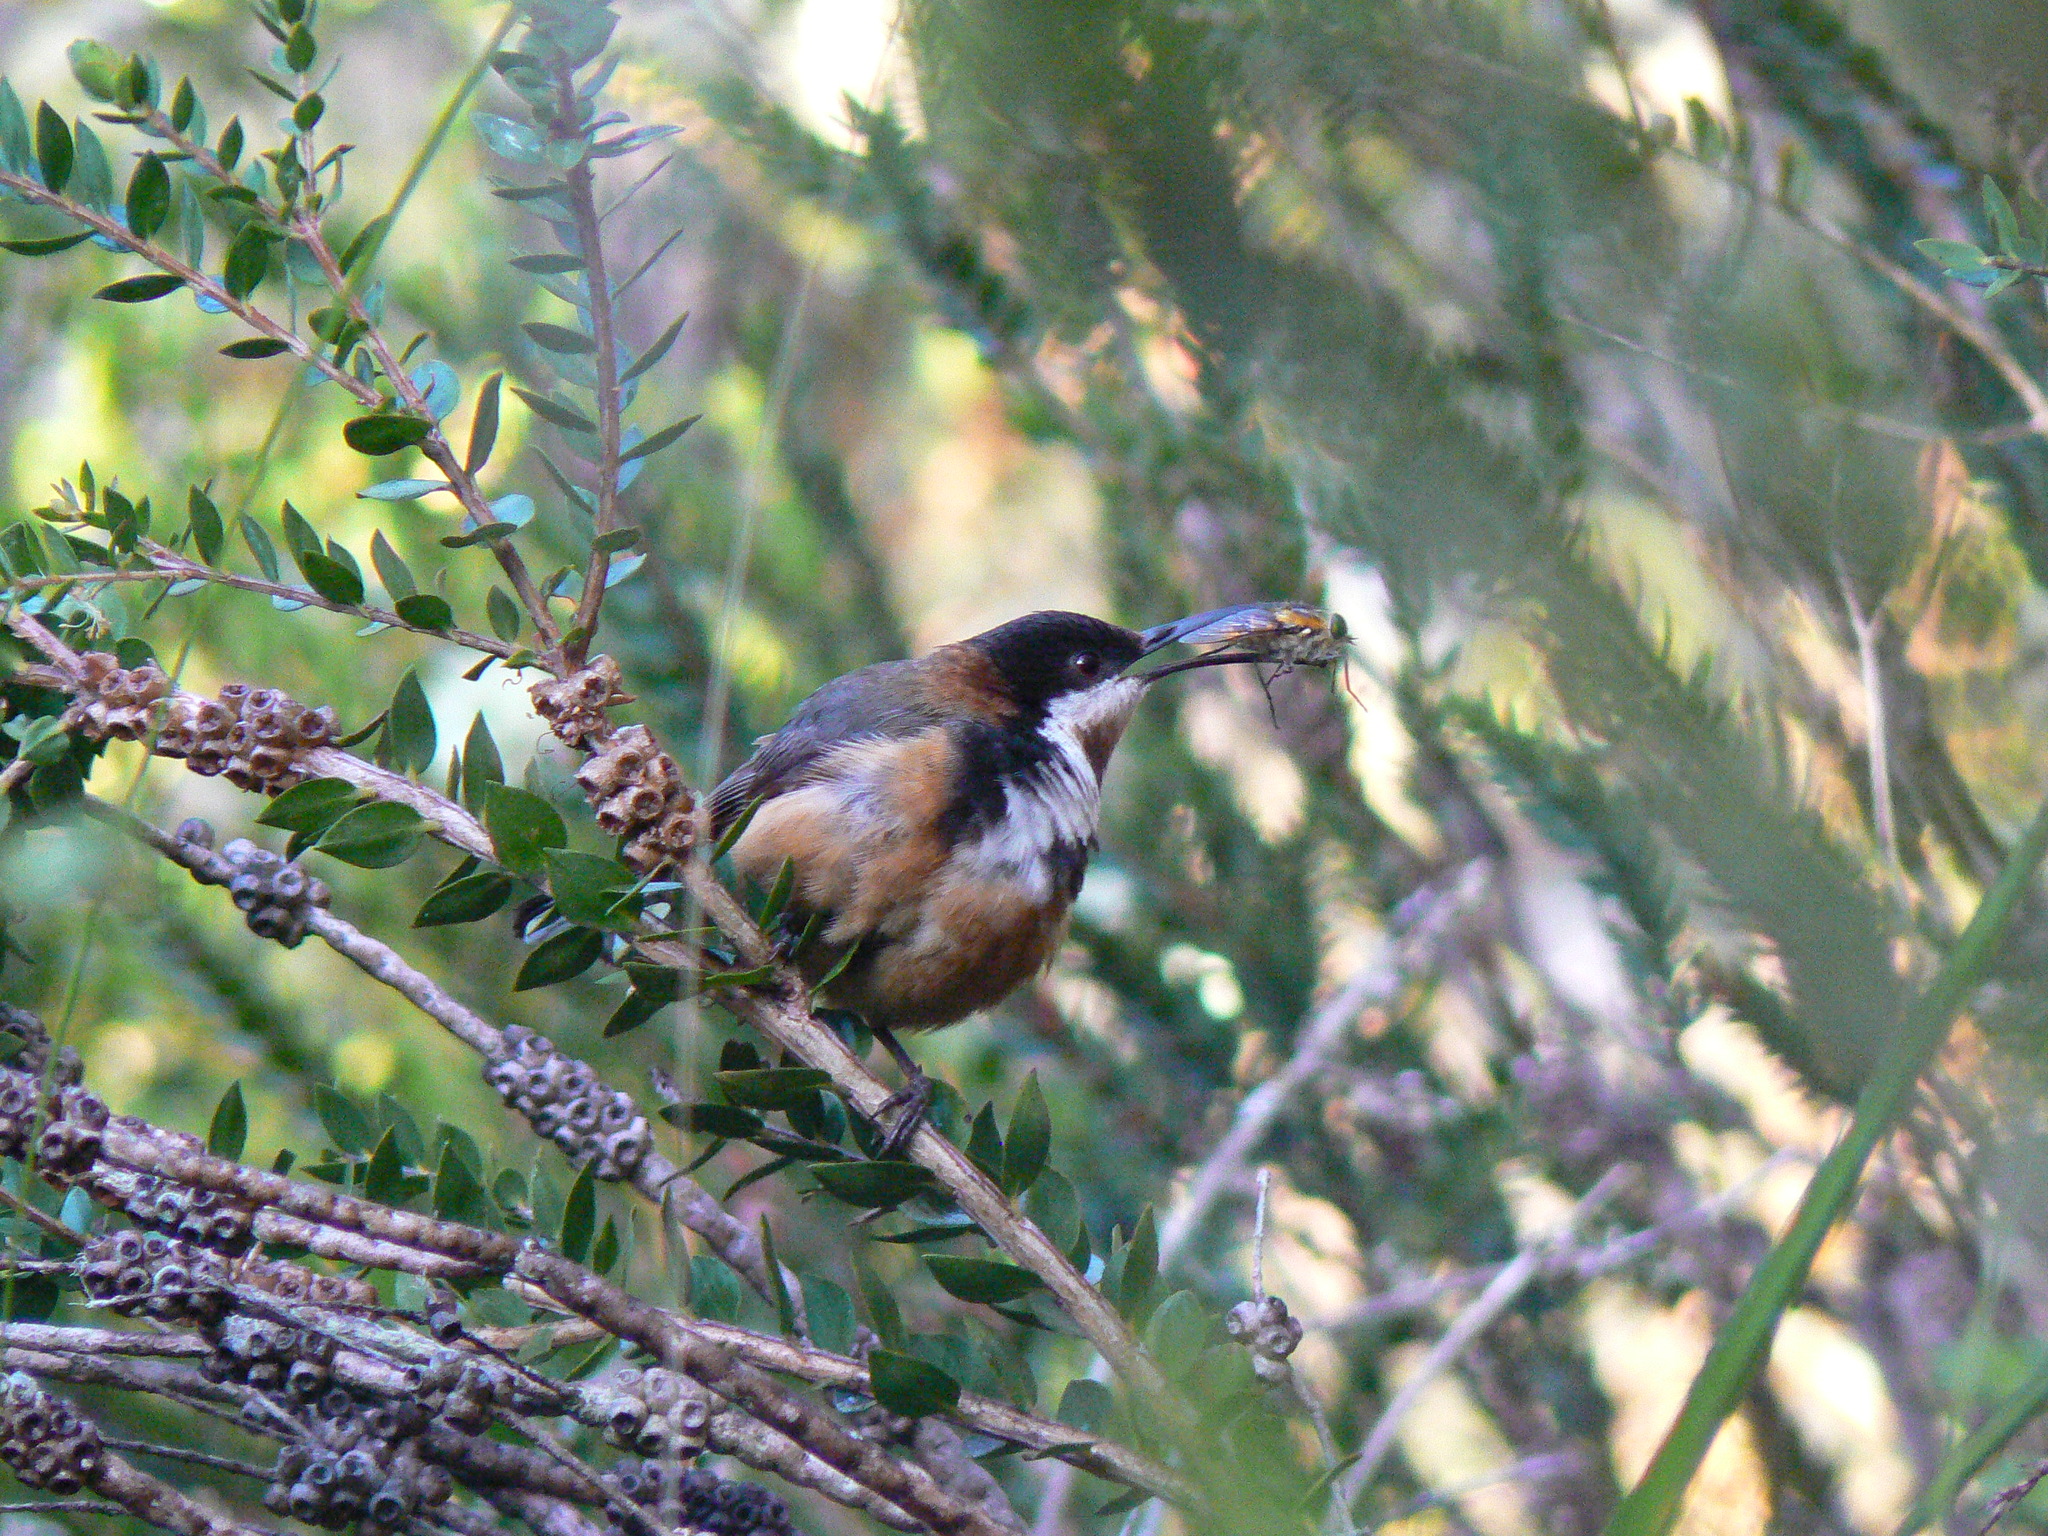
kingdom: Animalia
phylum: Chordata
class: Aves
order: Passeriformes
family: Meliphagidae
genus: Acanthorhynchus
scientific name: Acanthorhynchus tenuirostris
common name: Eastern spinebill
